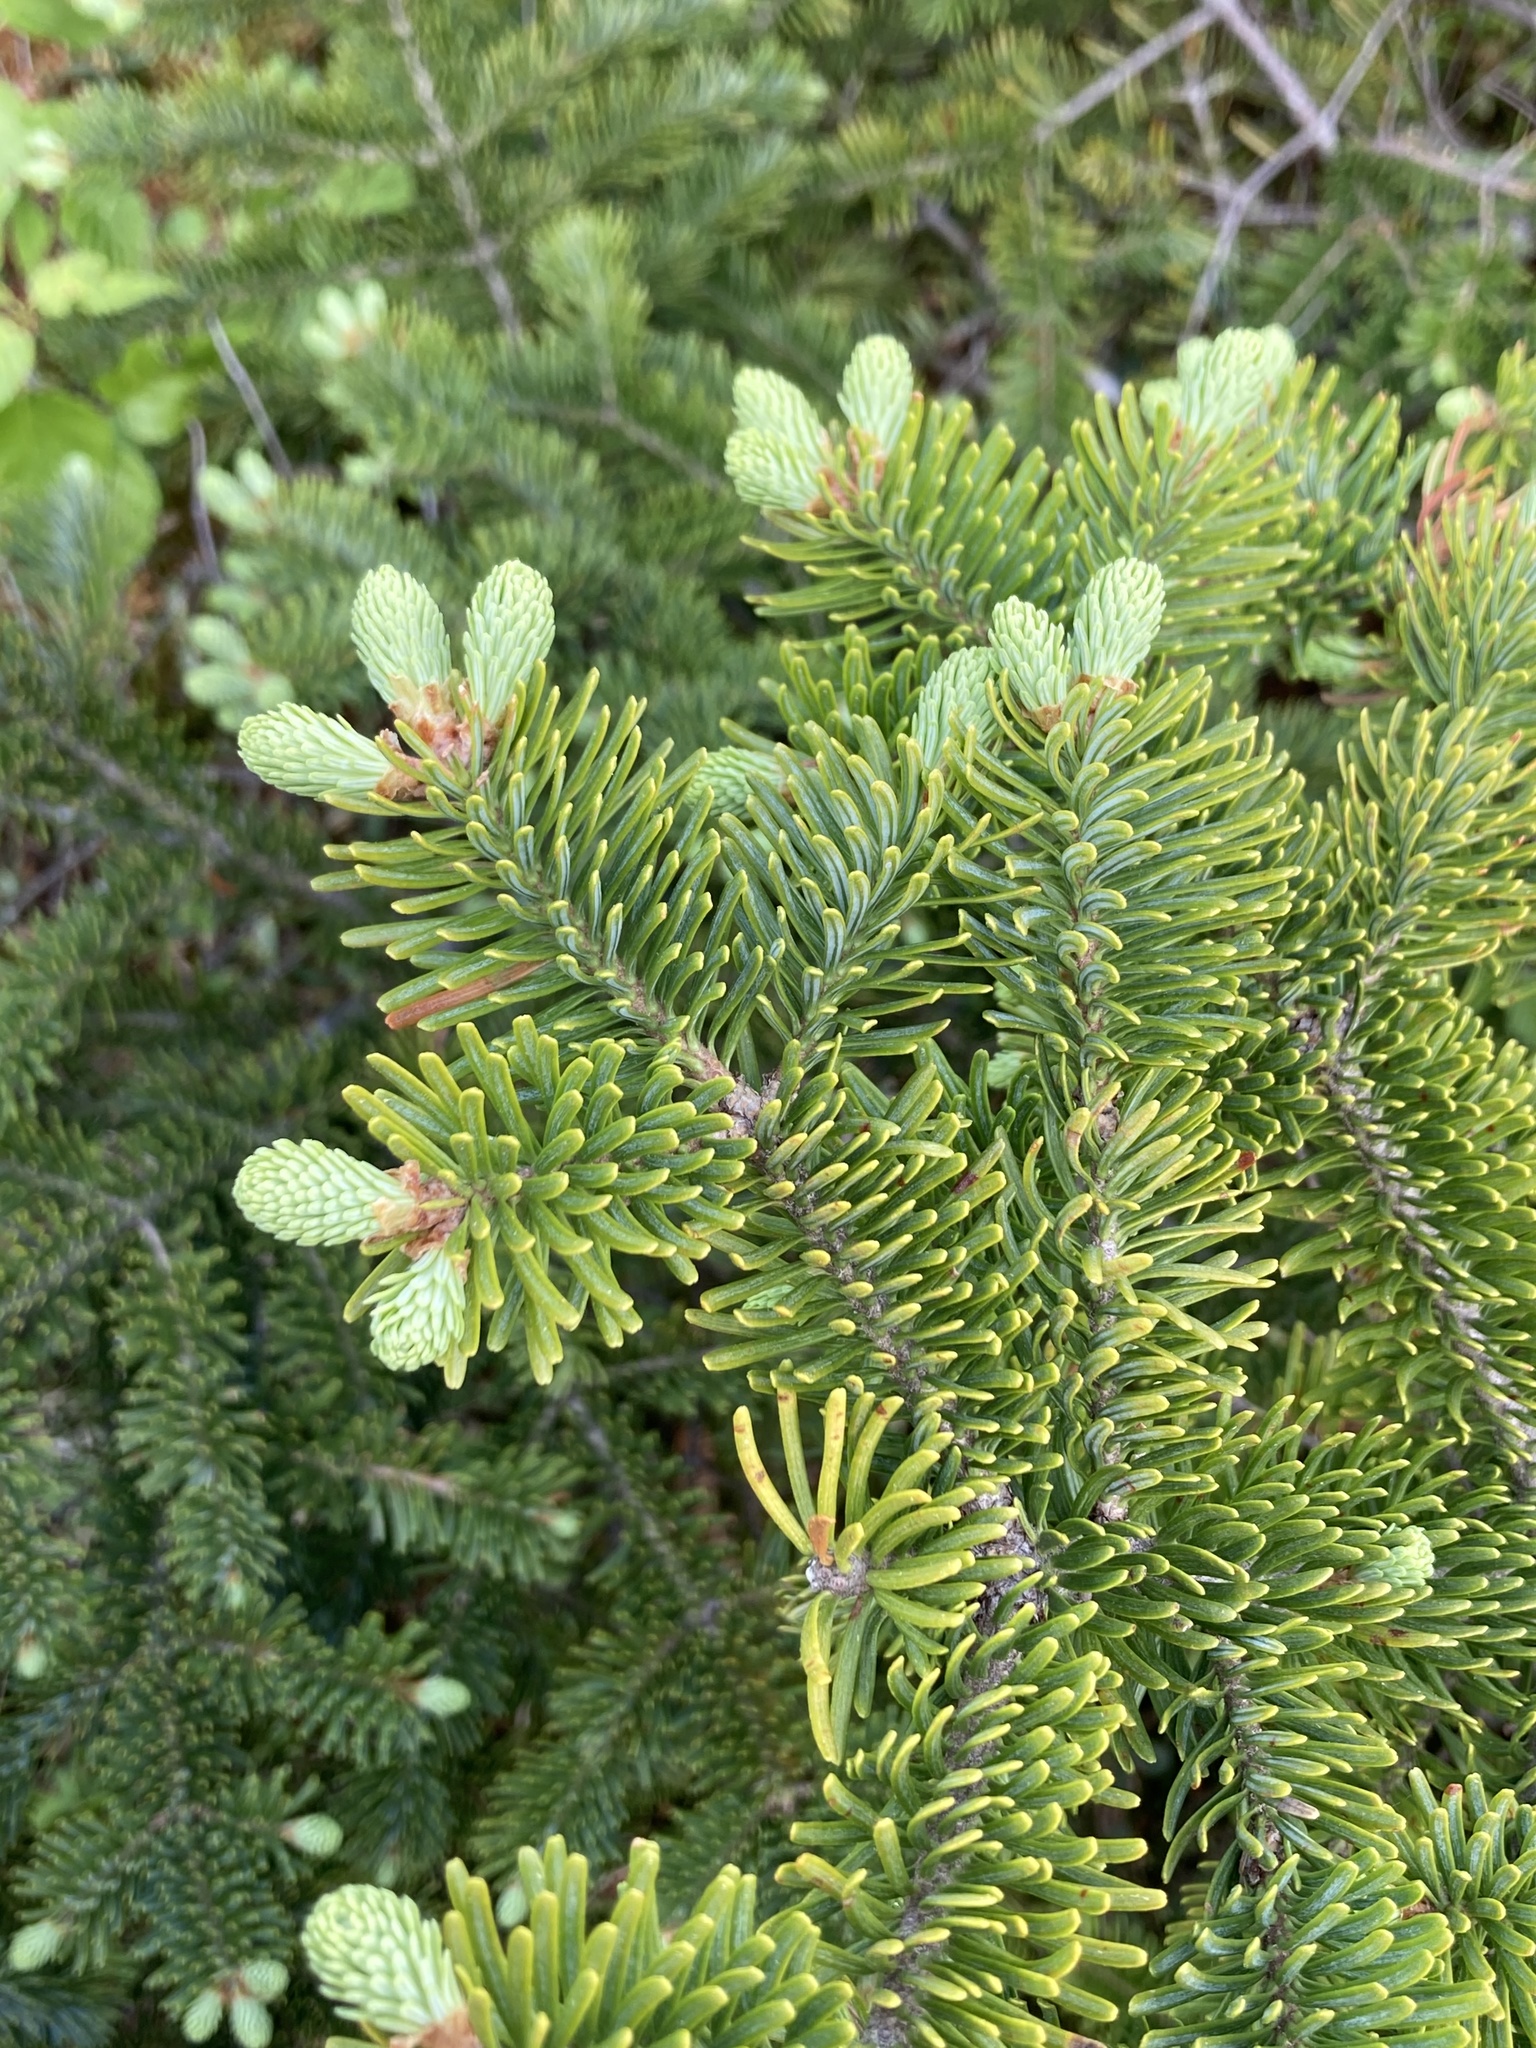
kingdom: Plantae
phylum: Tracheophyta
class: Pinopsida
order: Pinales
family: Pinaceae
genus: Abies
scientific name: Abies balsamea
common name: Balsam fir
